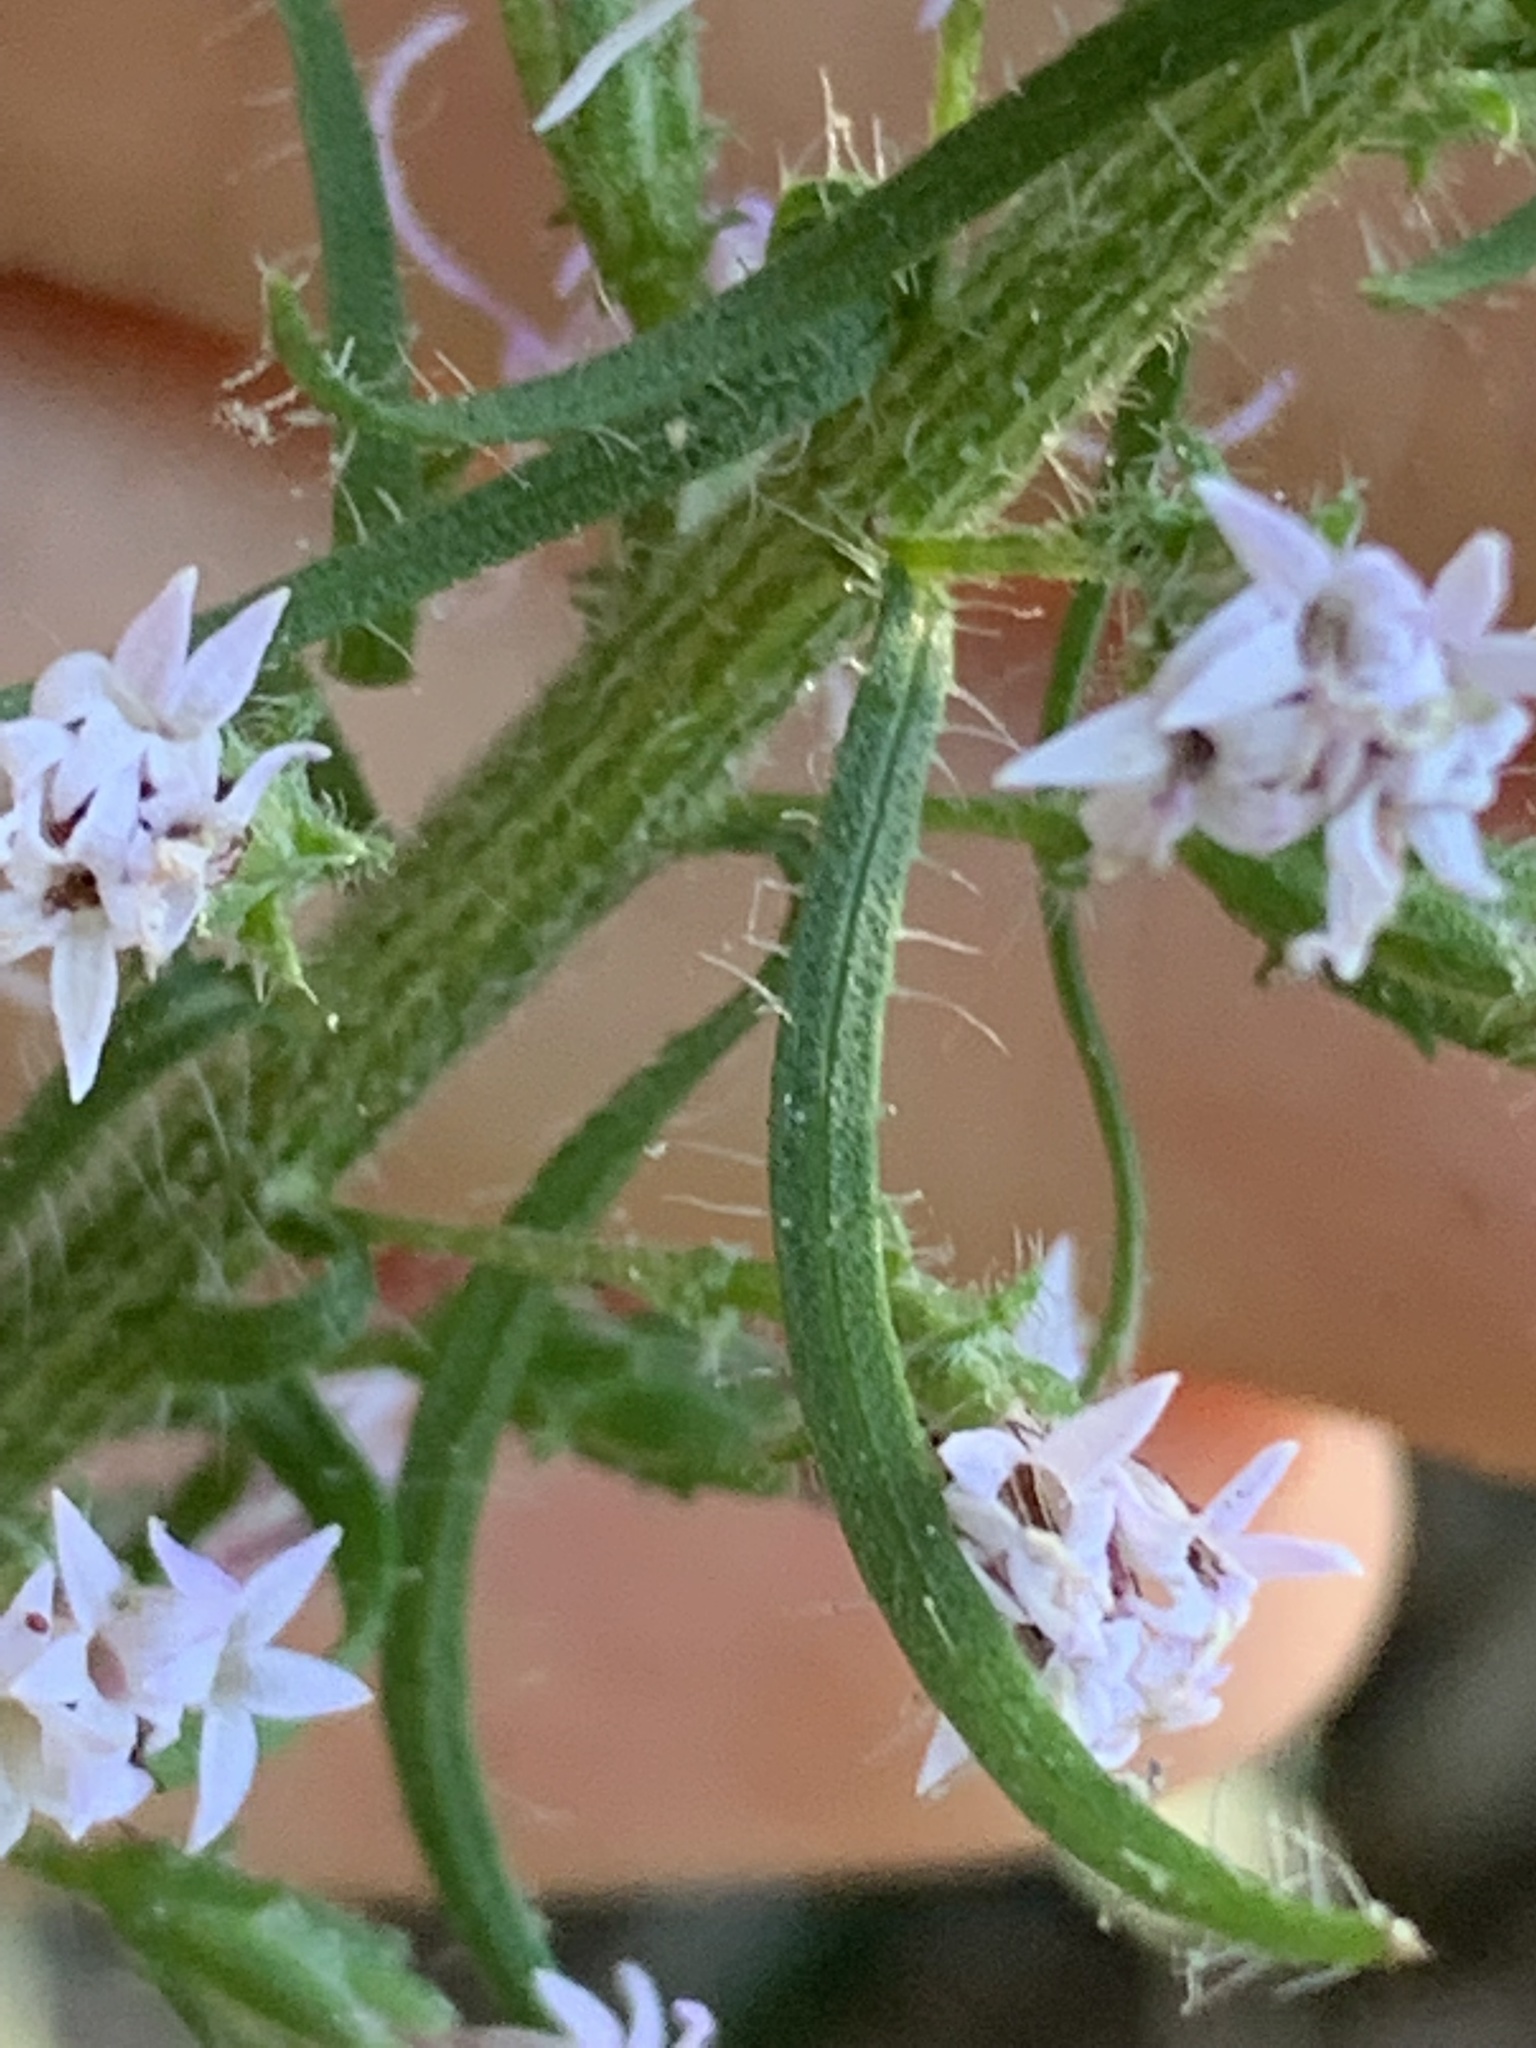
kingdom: Plantae
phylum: Tracheophyta
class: Magnoliopsida
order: Asterales
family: Asteraceae
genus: Liatris
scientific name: Liatris gracilis
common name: Slender gayfeather
